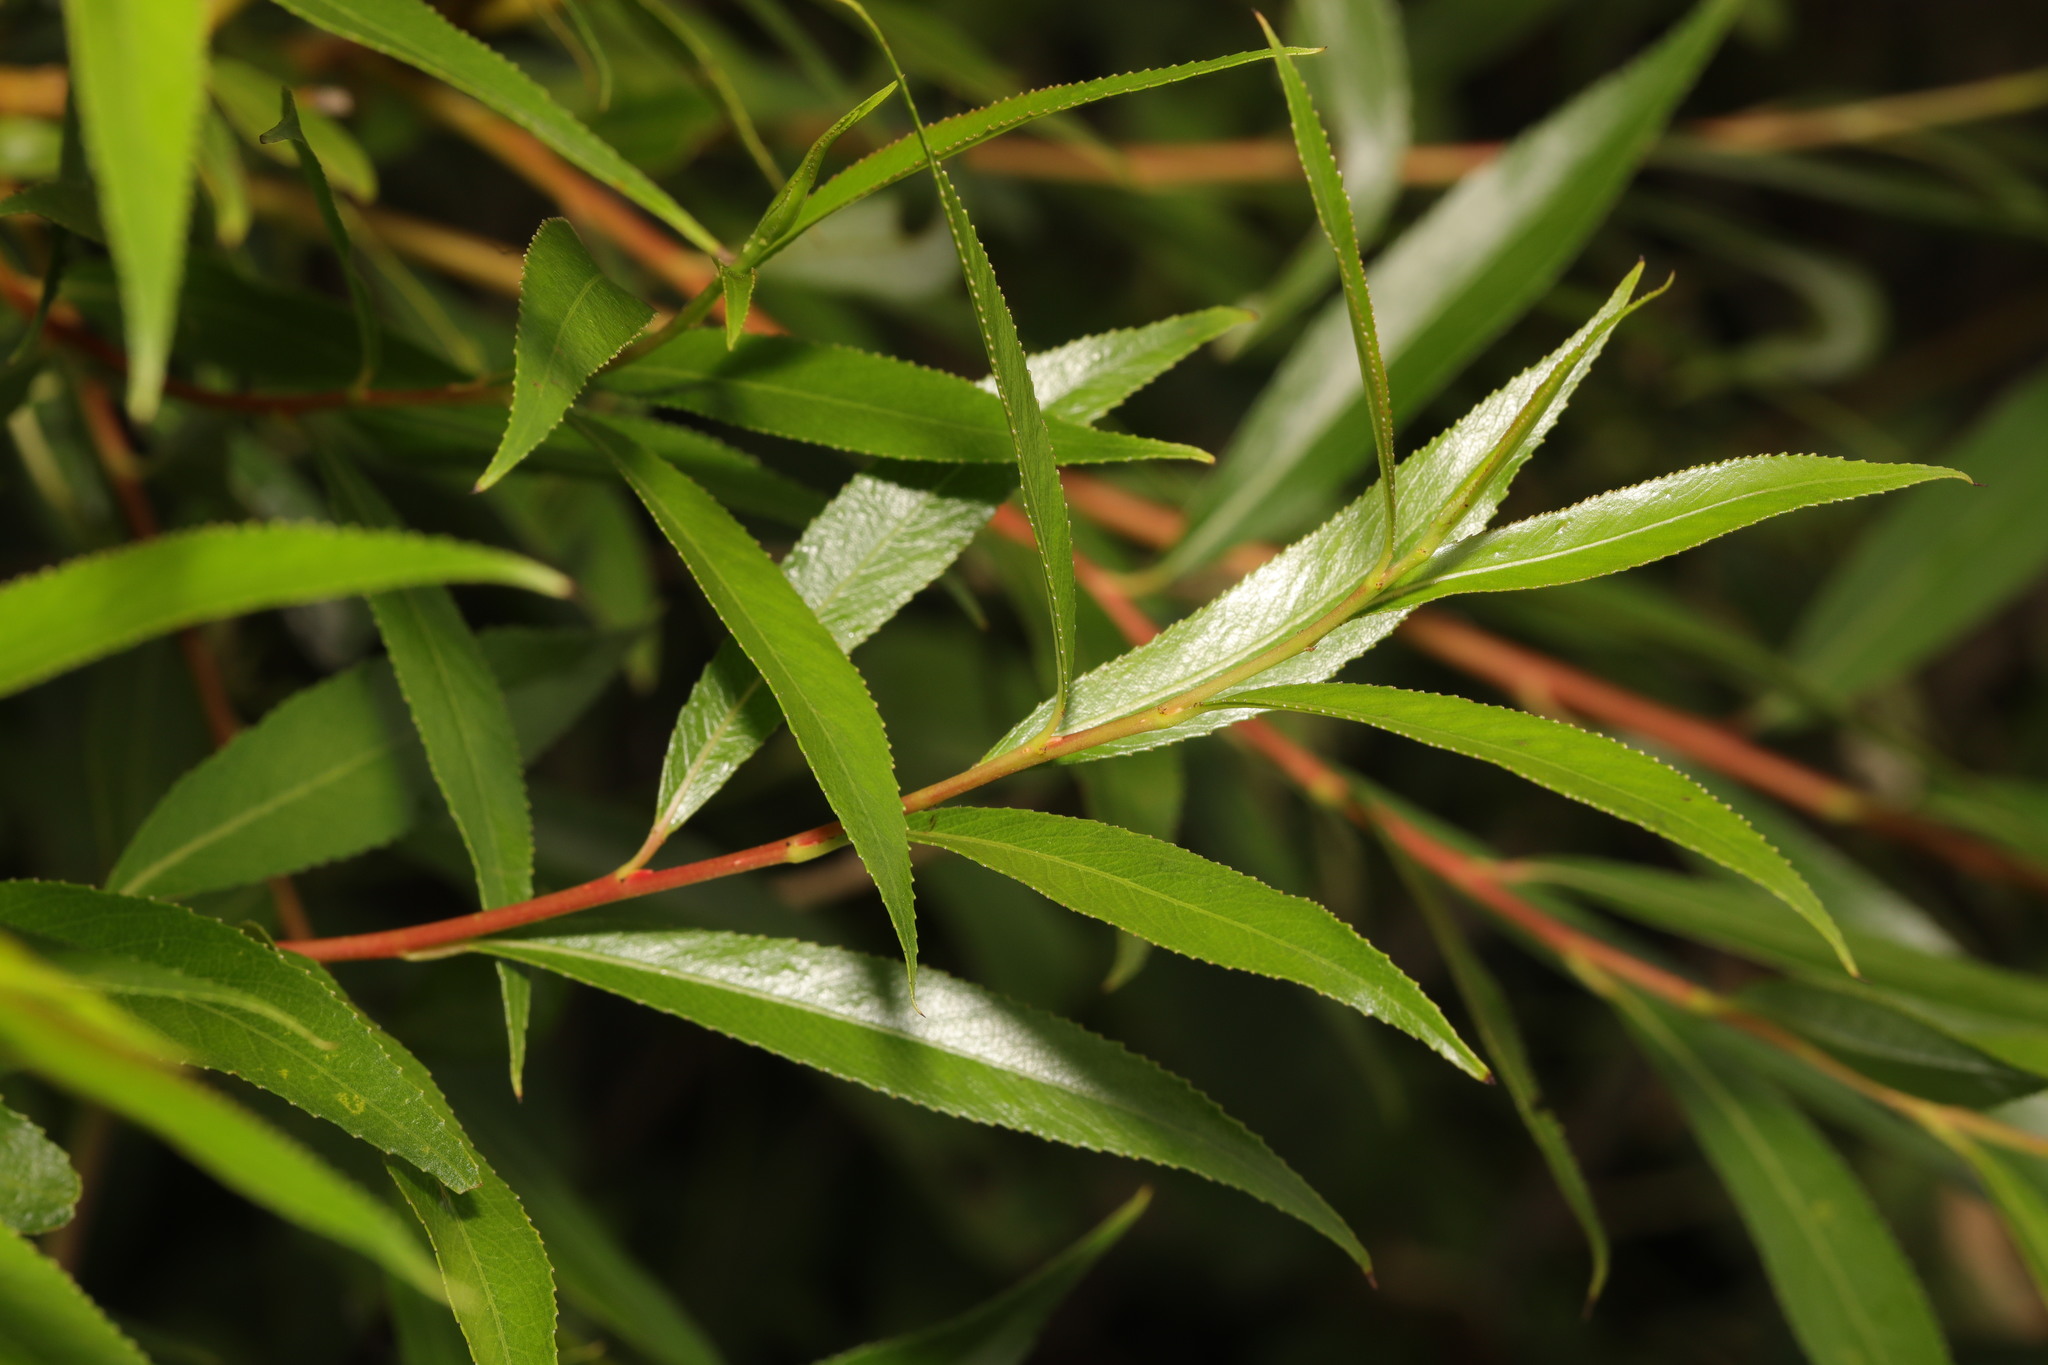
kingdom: Plantae
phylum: Tracheophyta
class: Magnoliopsida
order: Malpighiales
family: Salicaceae
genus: Salix
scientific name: Salix fragilis
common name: Crack willow
